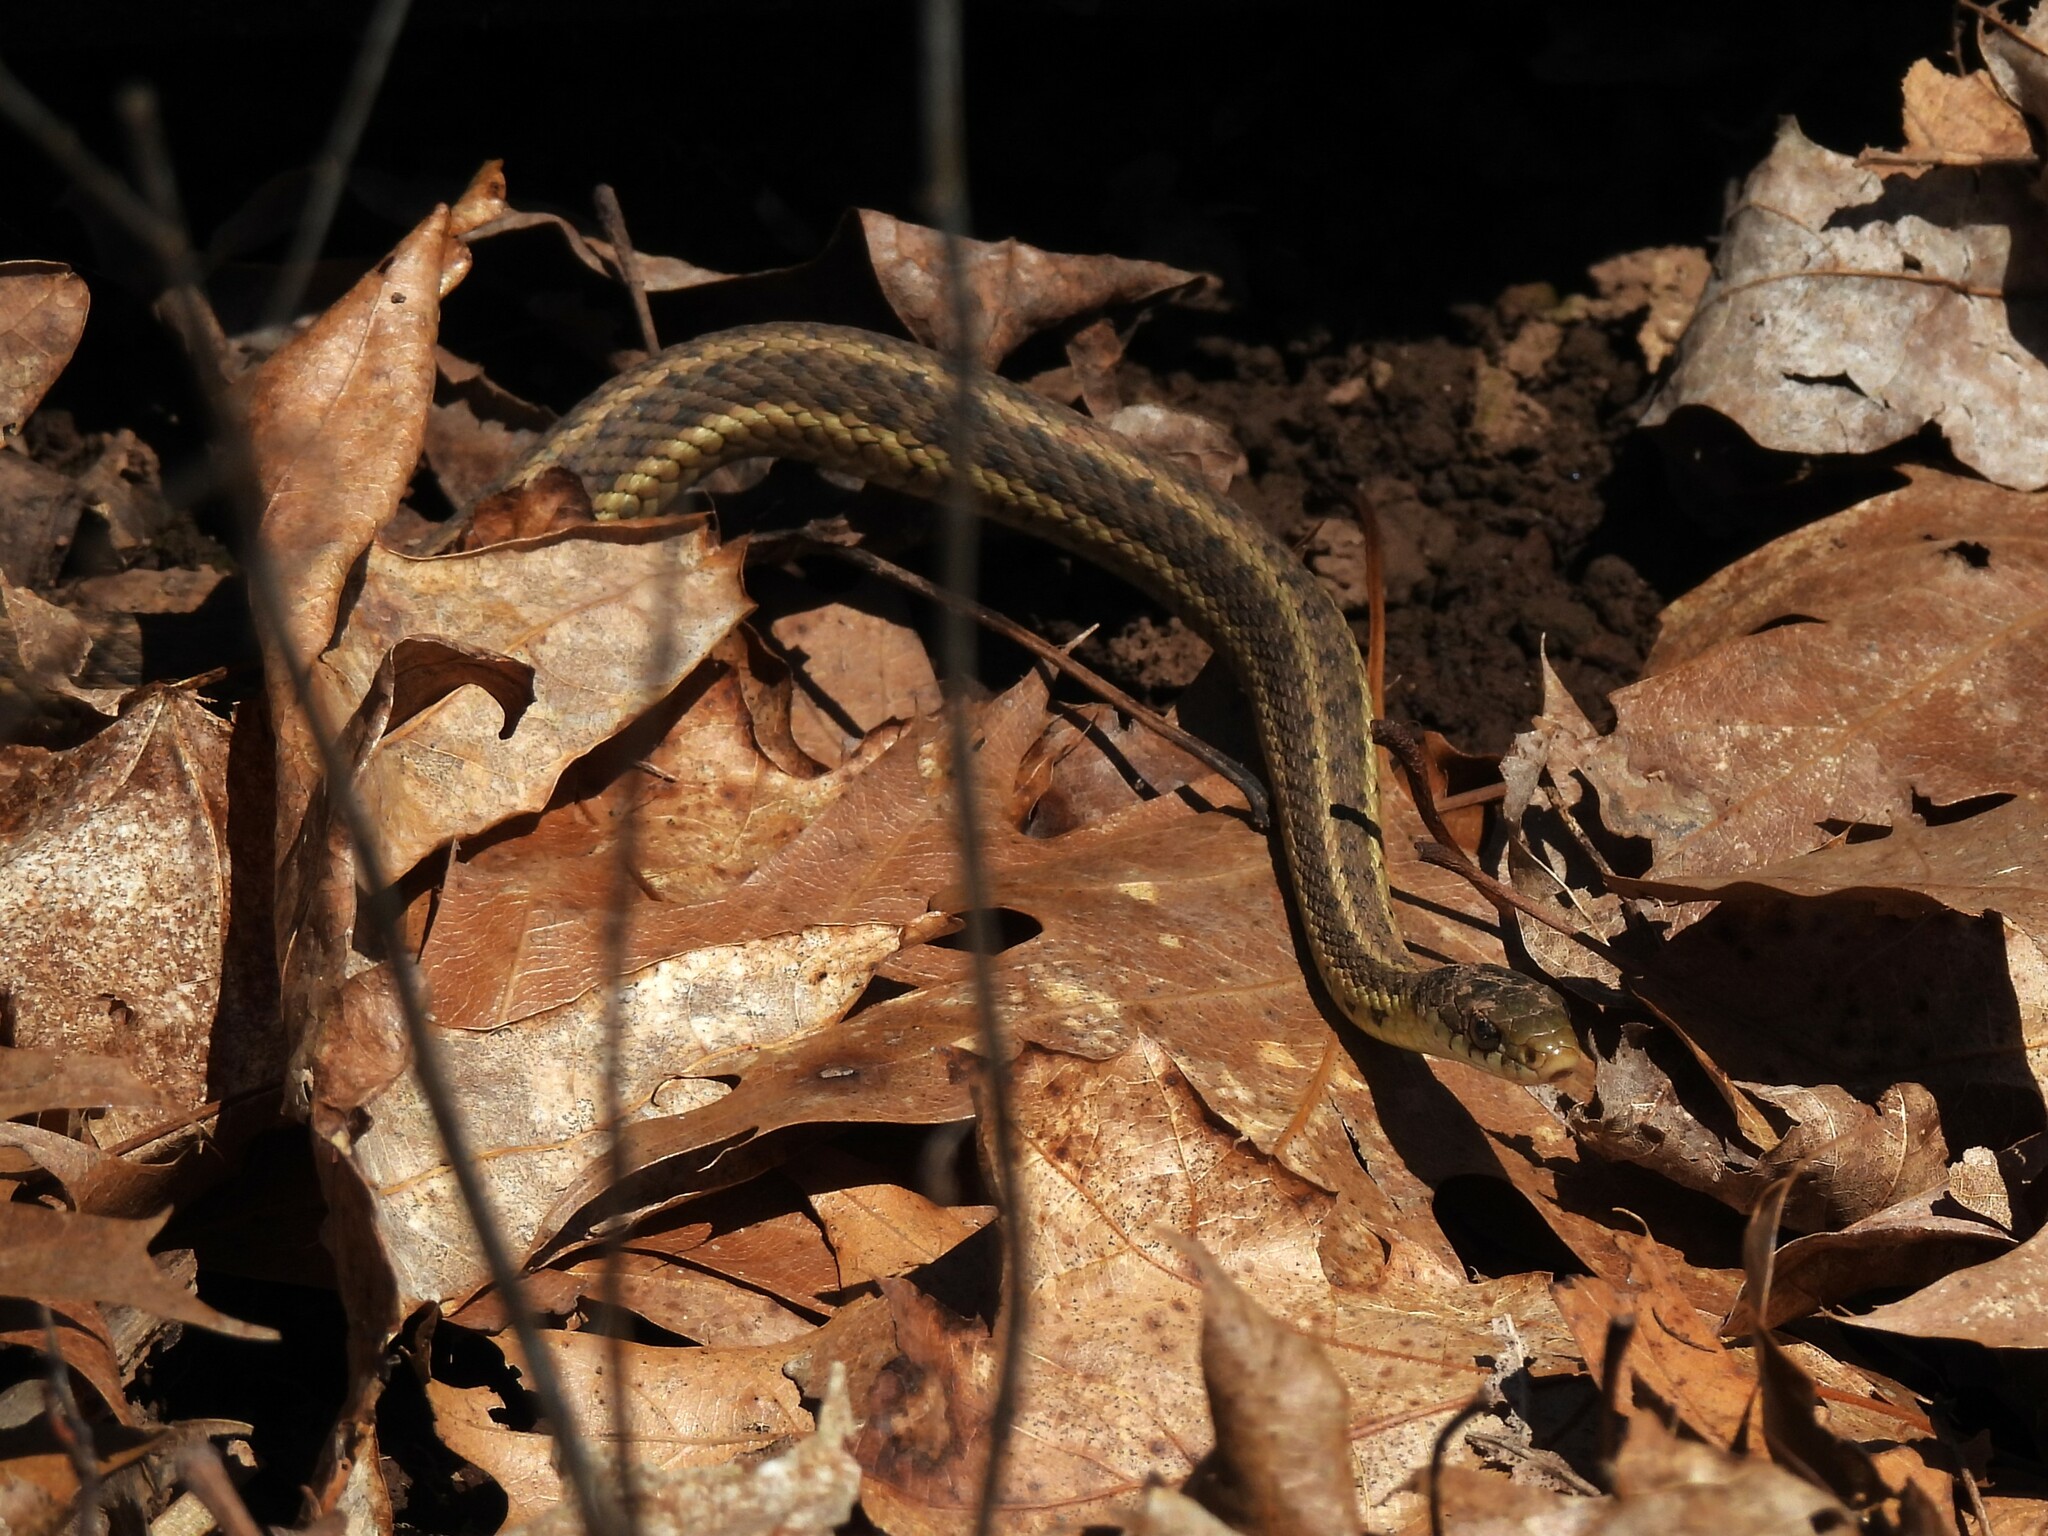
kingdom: Animalia
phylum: Chordata
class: Squamata
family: Colubridae
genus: Thamnophis
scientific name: Thamnophis sirtalis
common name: Common garter snake
